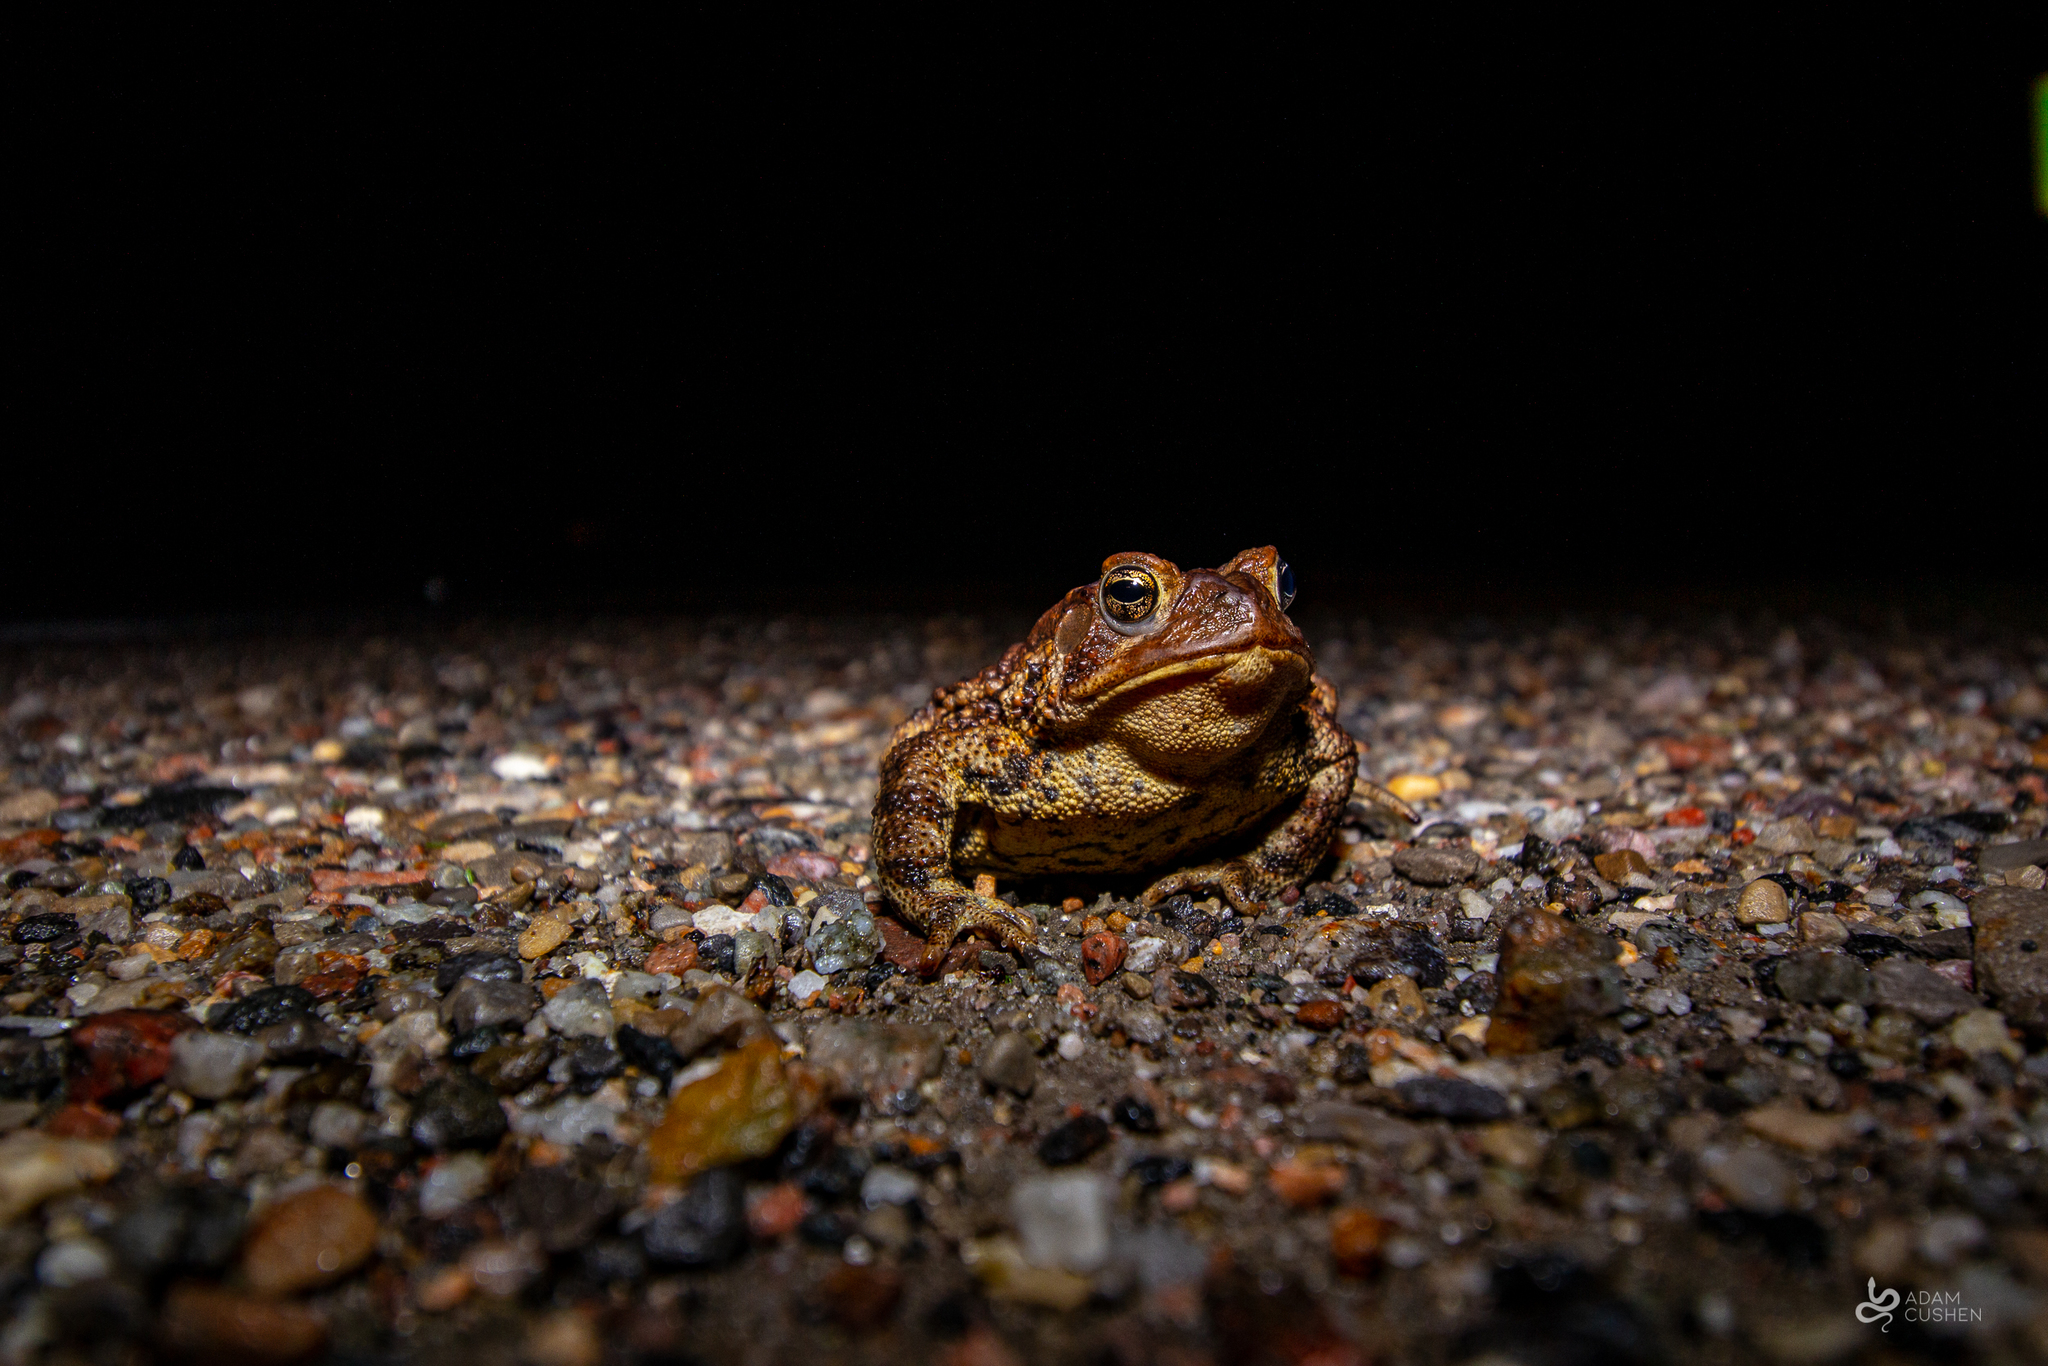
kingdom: Animalia
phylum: Chordata
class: Amphibia
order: Anura
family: Bufonidae
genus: Anaxyrus
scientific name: Anaxyrus americanus
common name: American toad
